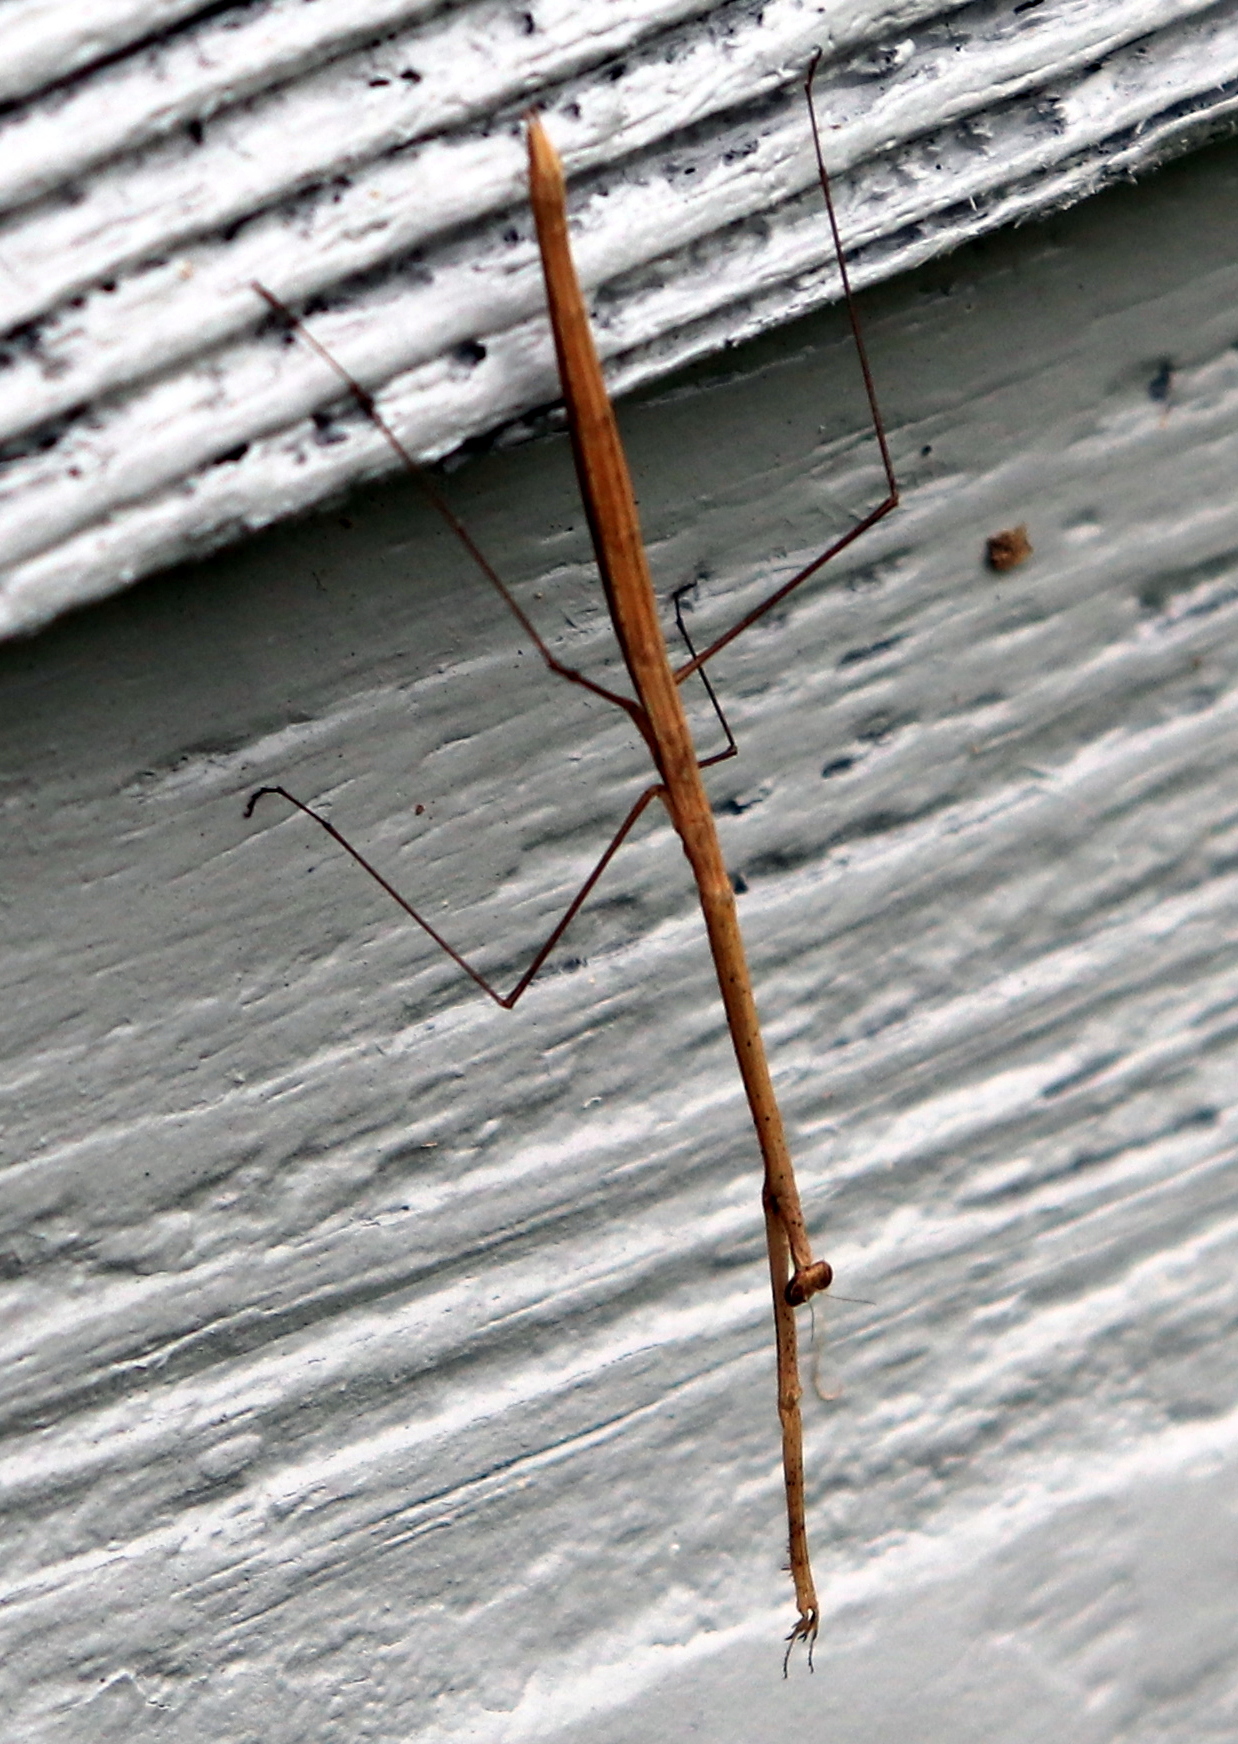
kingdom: Animalia
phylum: Arthropoda
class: Insecta
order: Mantodea
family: Thespidae
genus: Thesprotia
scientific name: Thesprotia graminis
